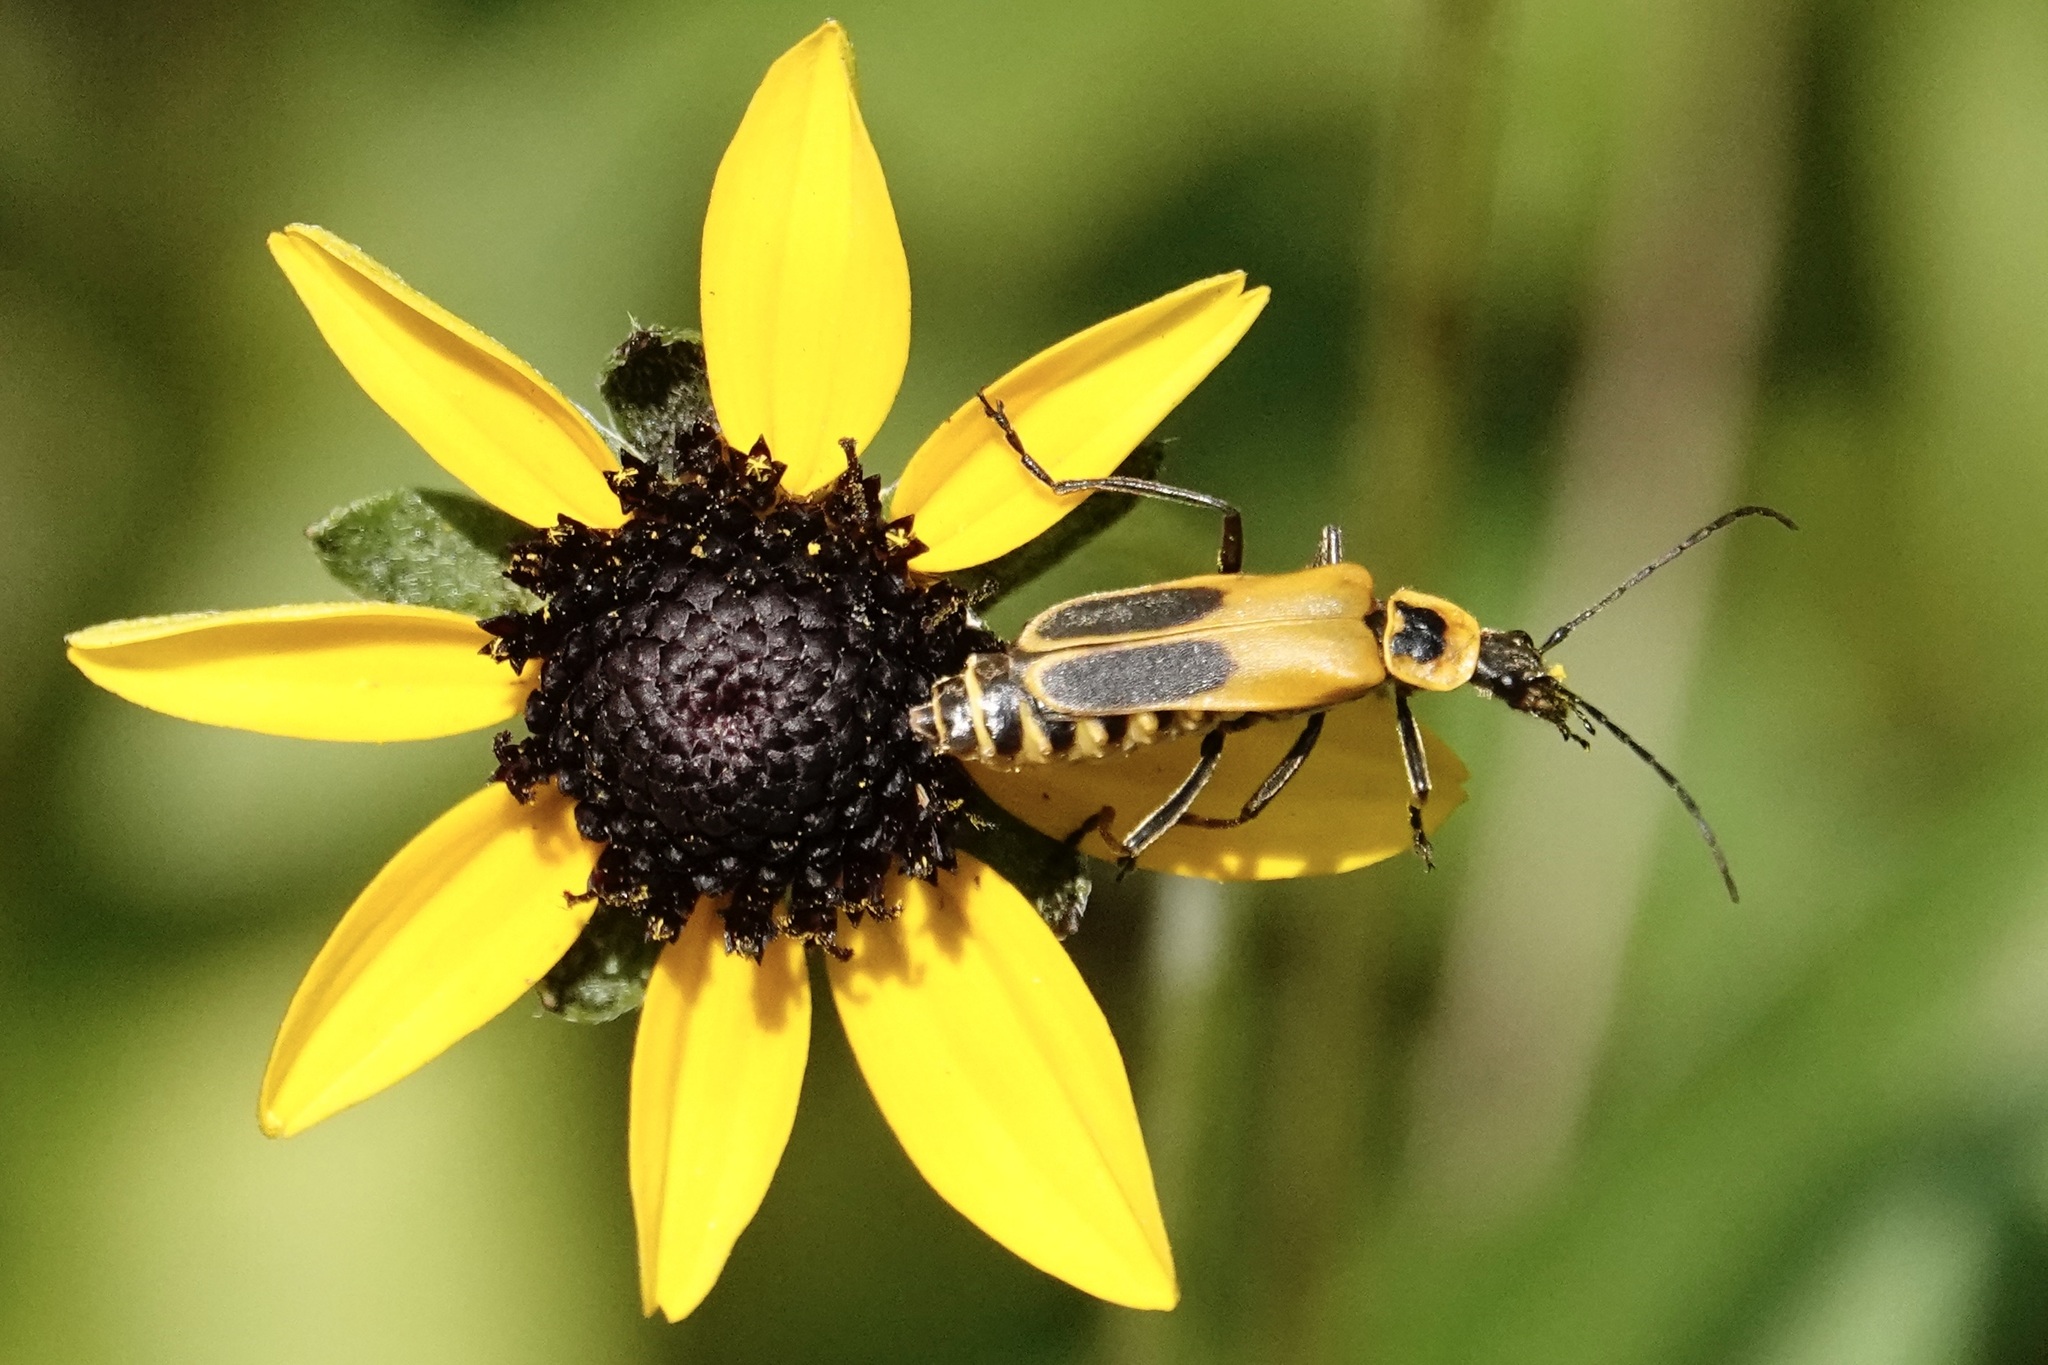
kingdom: Animalia
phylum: Arthropoda
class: Insecta
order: Coleoptera
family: Cantharidae
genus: Chauliognathus
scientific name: Chauliognathus pensylvanicus
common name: Goldenrod soldier beetle
